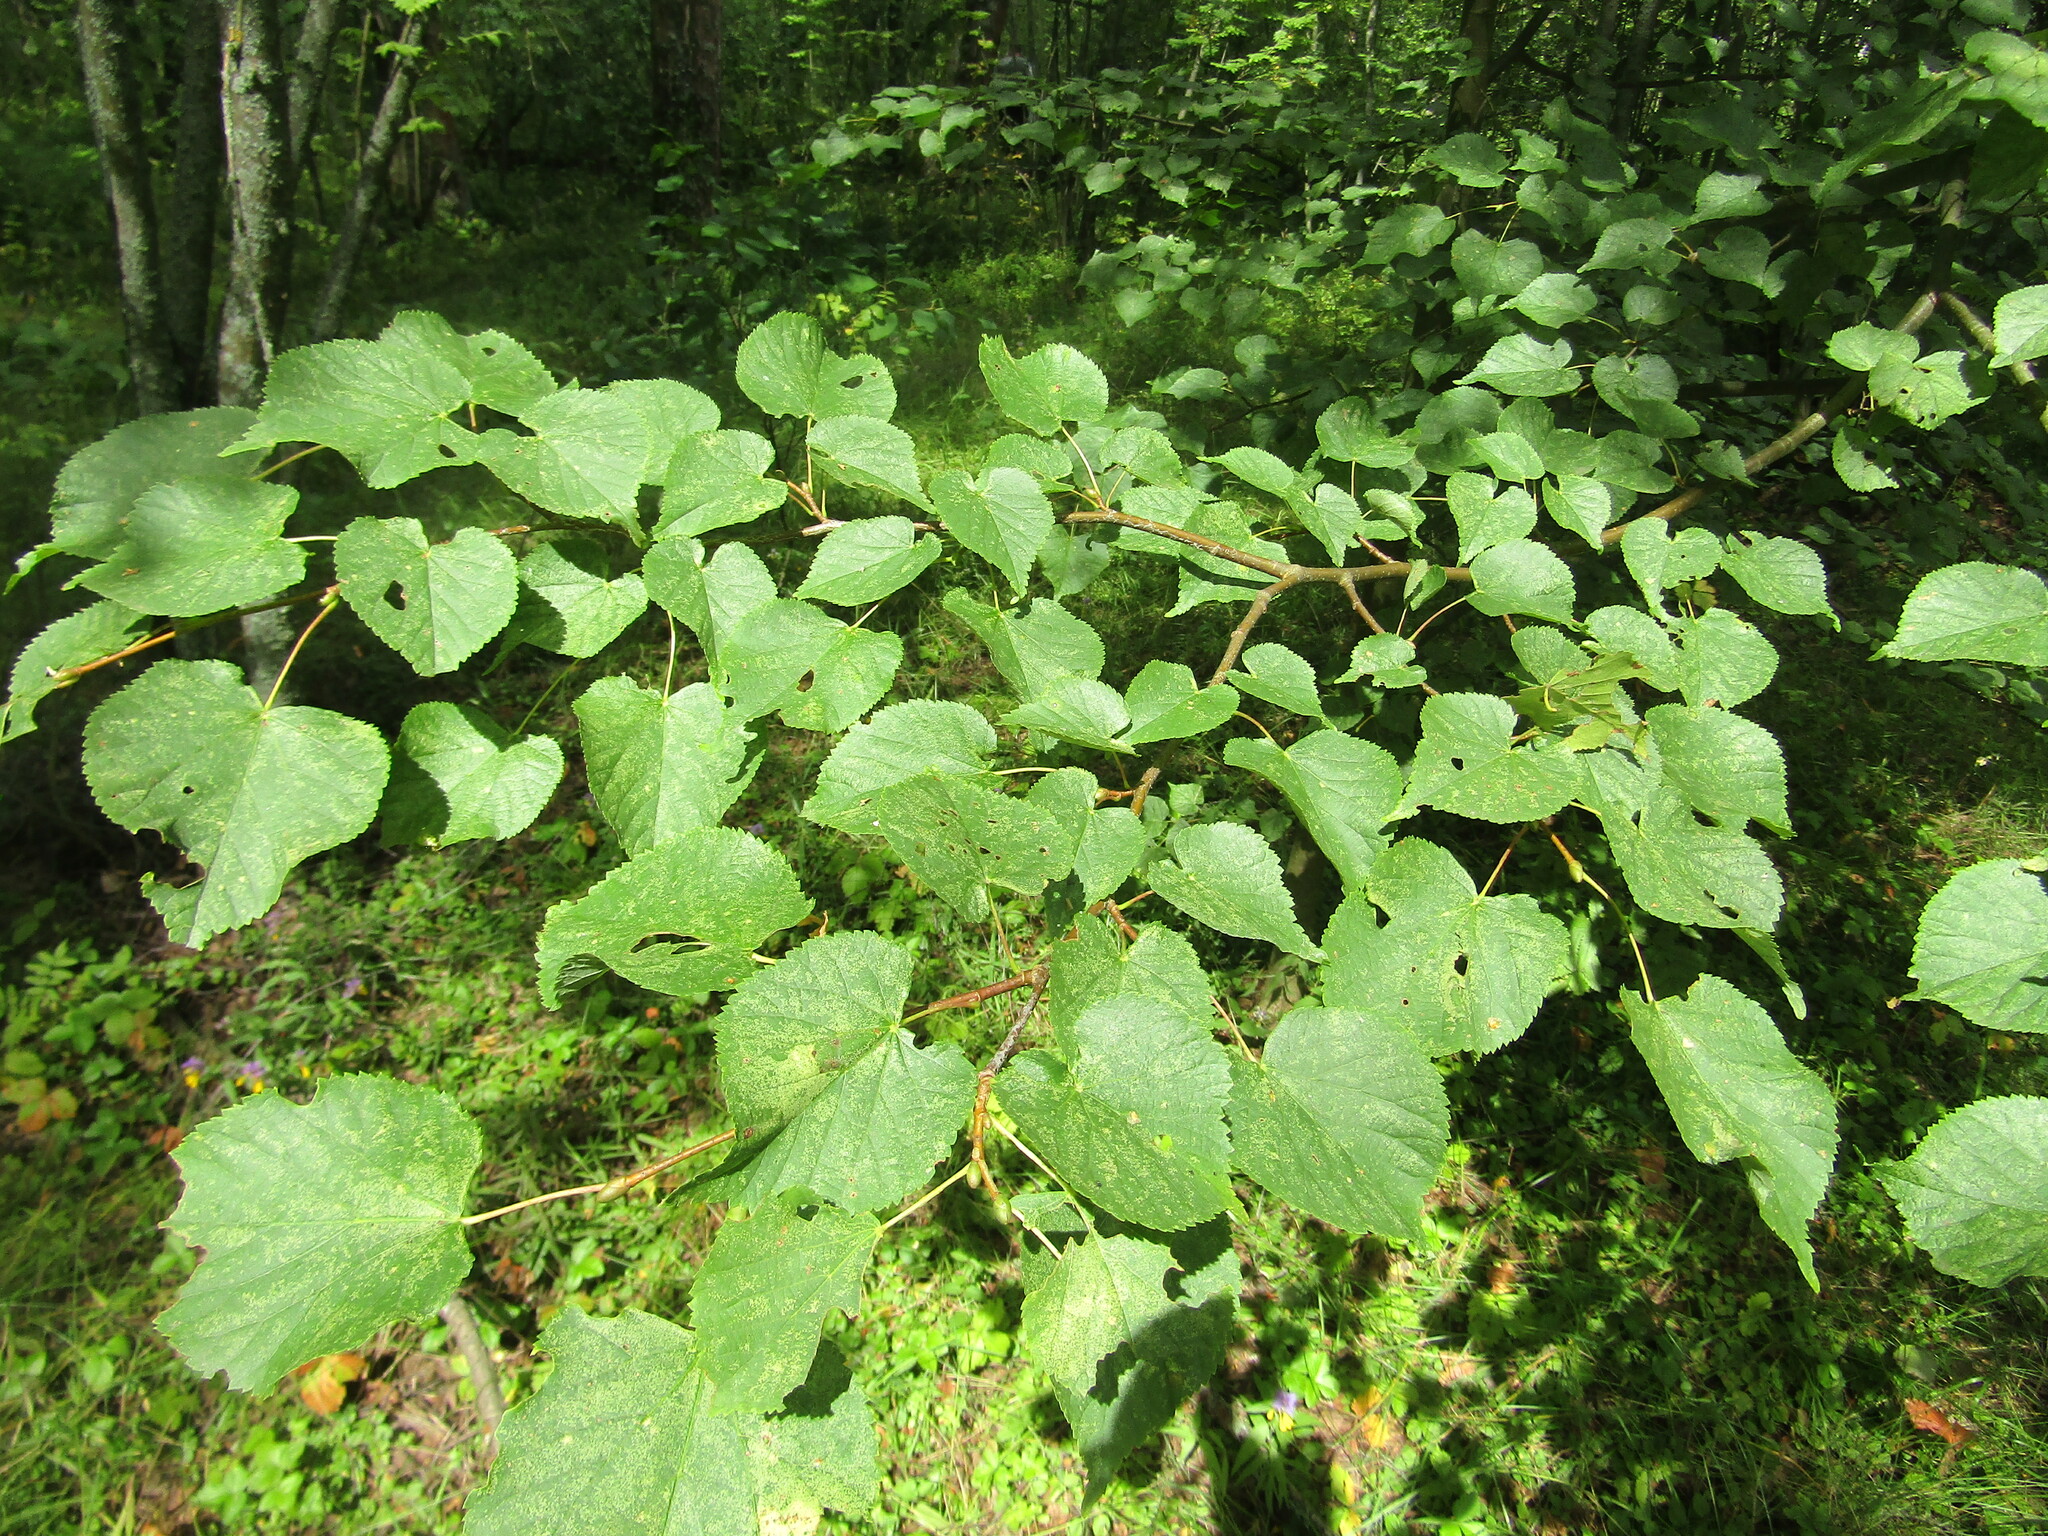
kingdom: Plantae
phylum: Tracheophyta
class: Magnoliopsida
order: Malvales
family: Malvaceae
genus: Tilia
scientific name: Tilia cordata
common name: Small-leaved lime
